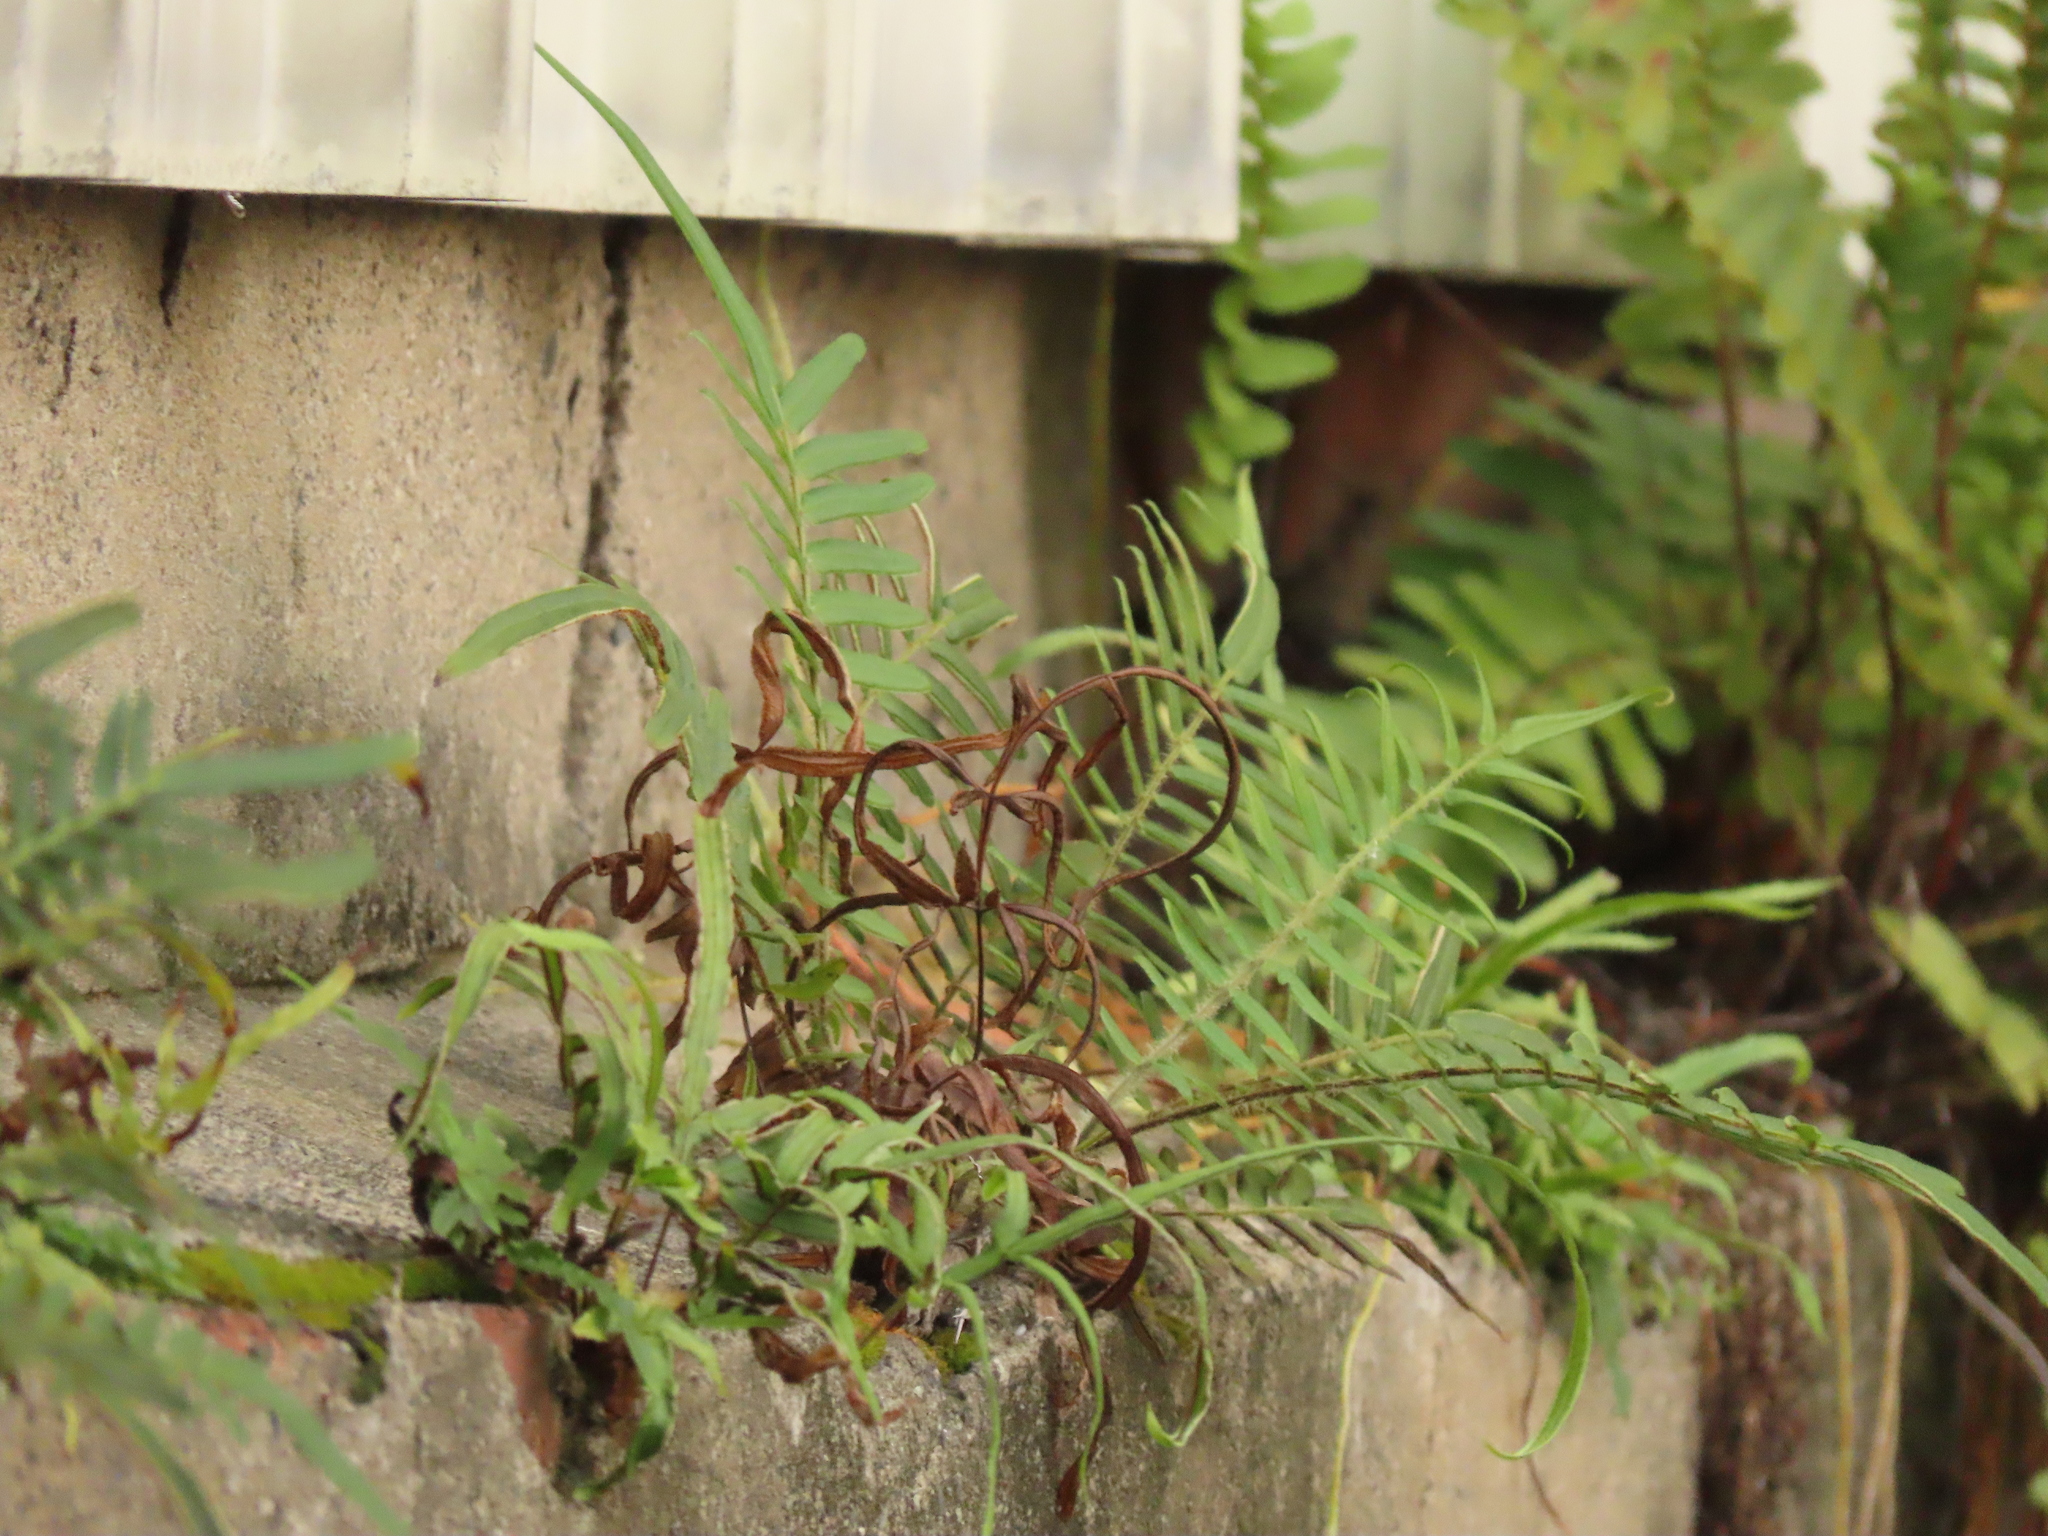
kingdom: Plantae
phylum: Tracheophyta
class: Polypodiopsida
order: Polypodiales
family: Pteridaceae
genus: Pteris
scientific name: Pteris vittata
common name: Ladder brake
